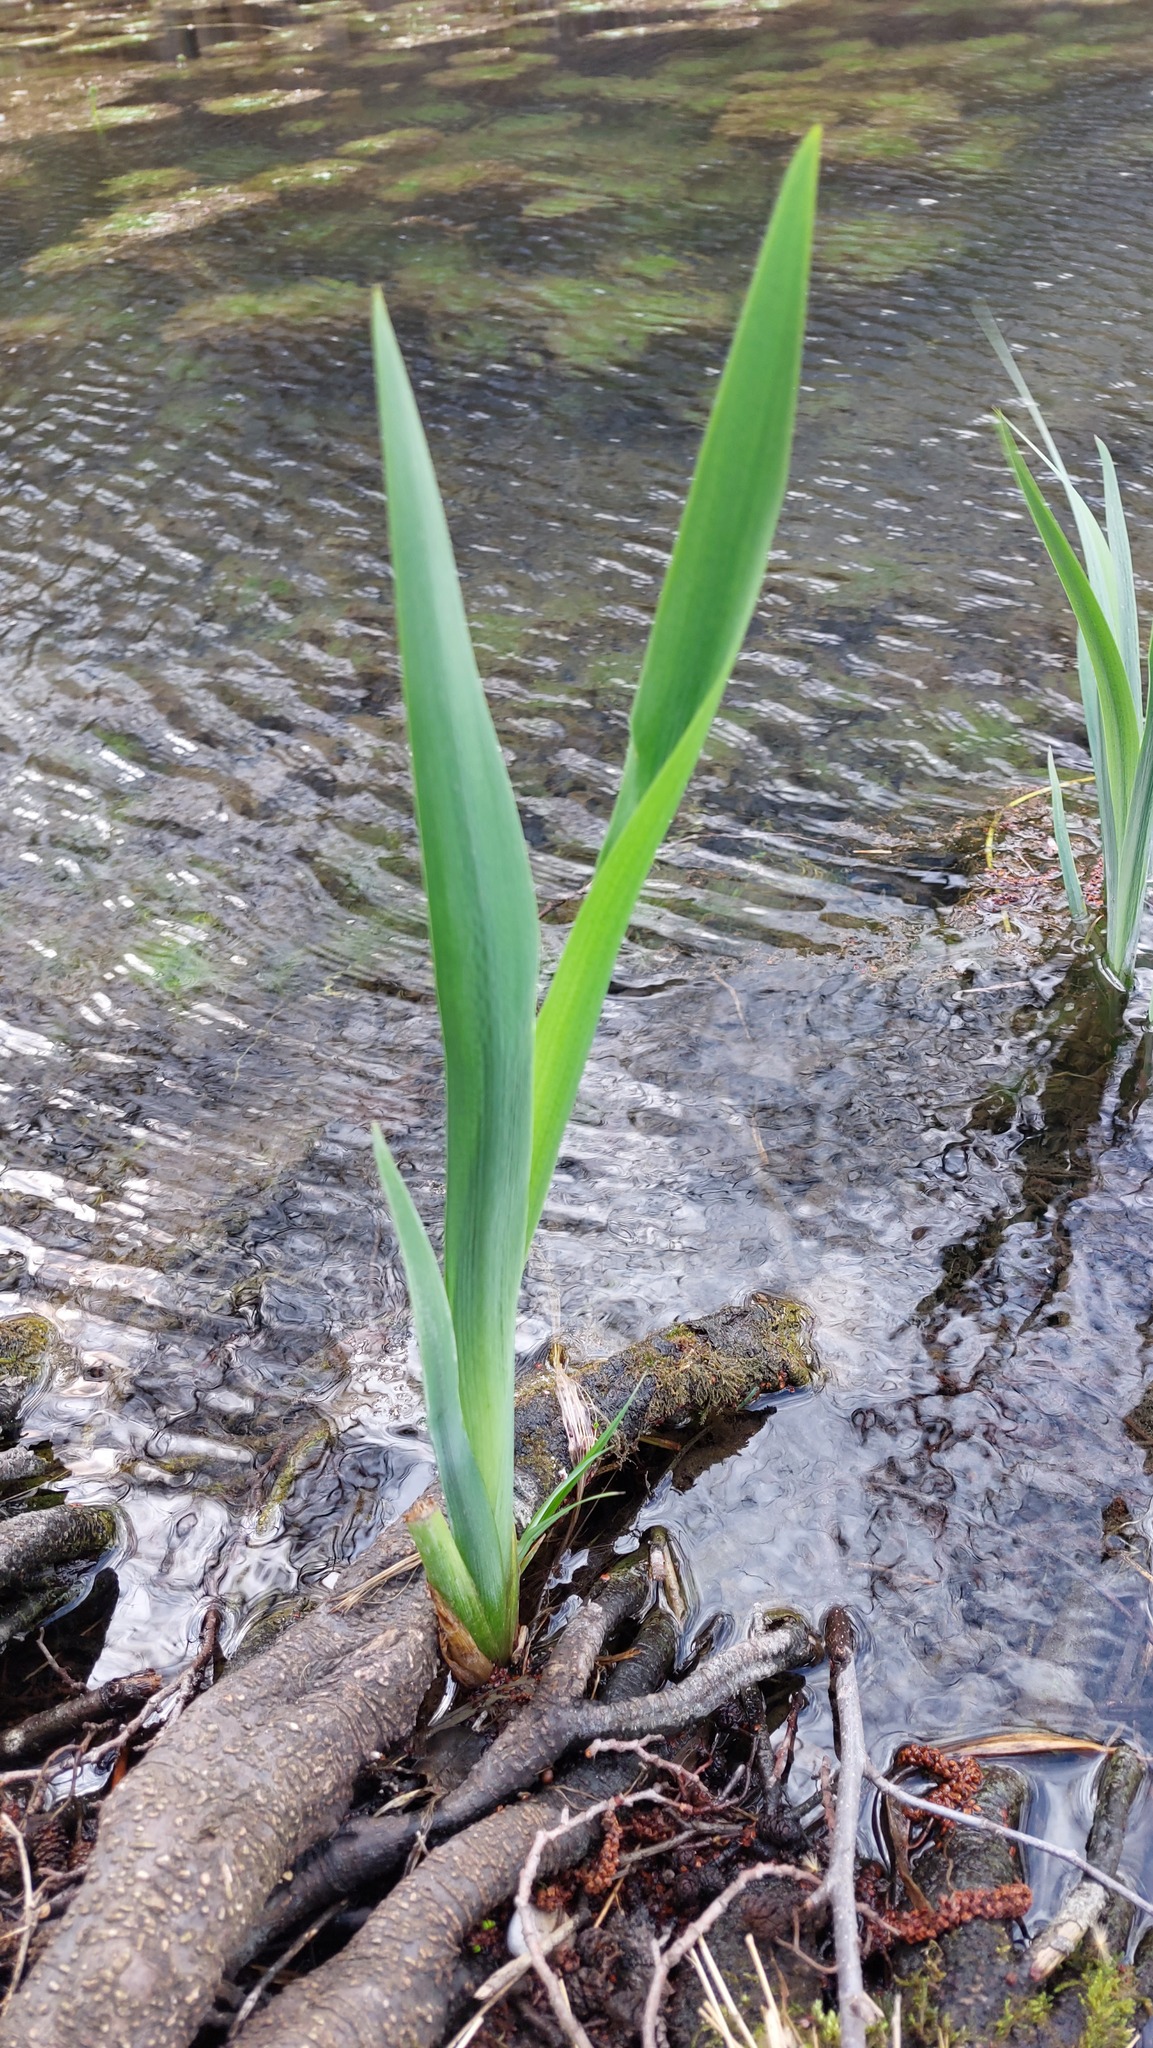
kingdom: Plantae
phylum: Tracheophyta
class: Liliopsida
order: Asparagales
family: Iridaceae
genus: Iris
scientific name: Iris pseudacorus
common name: Yellow flag
